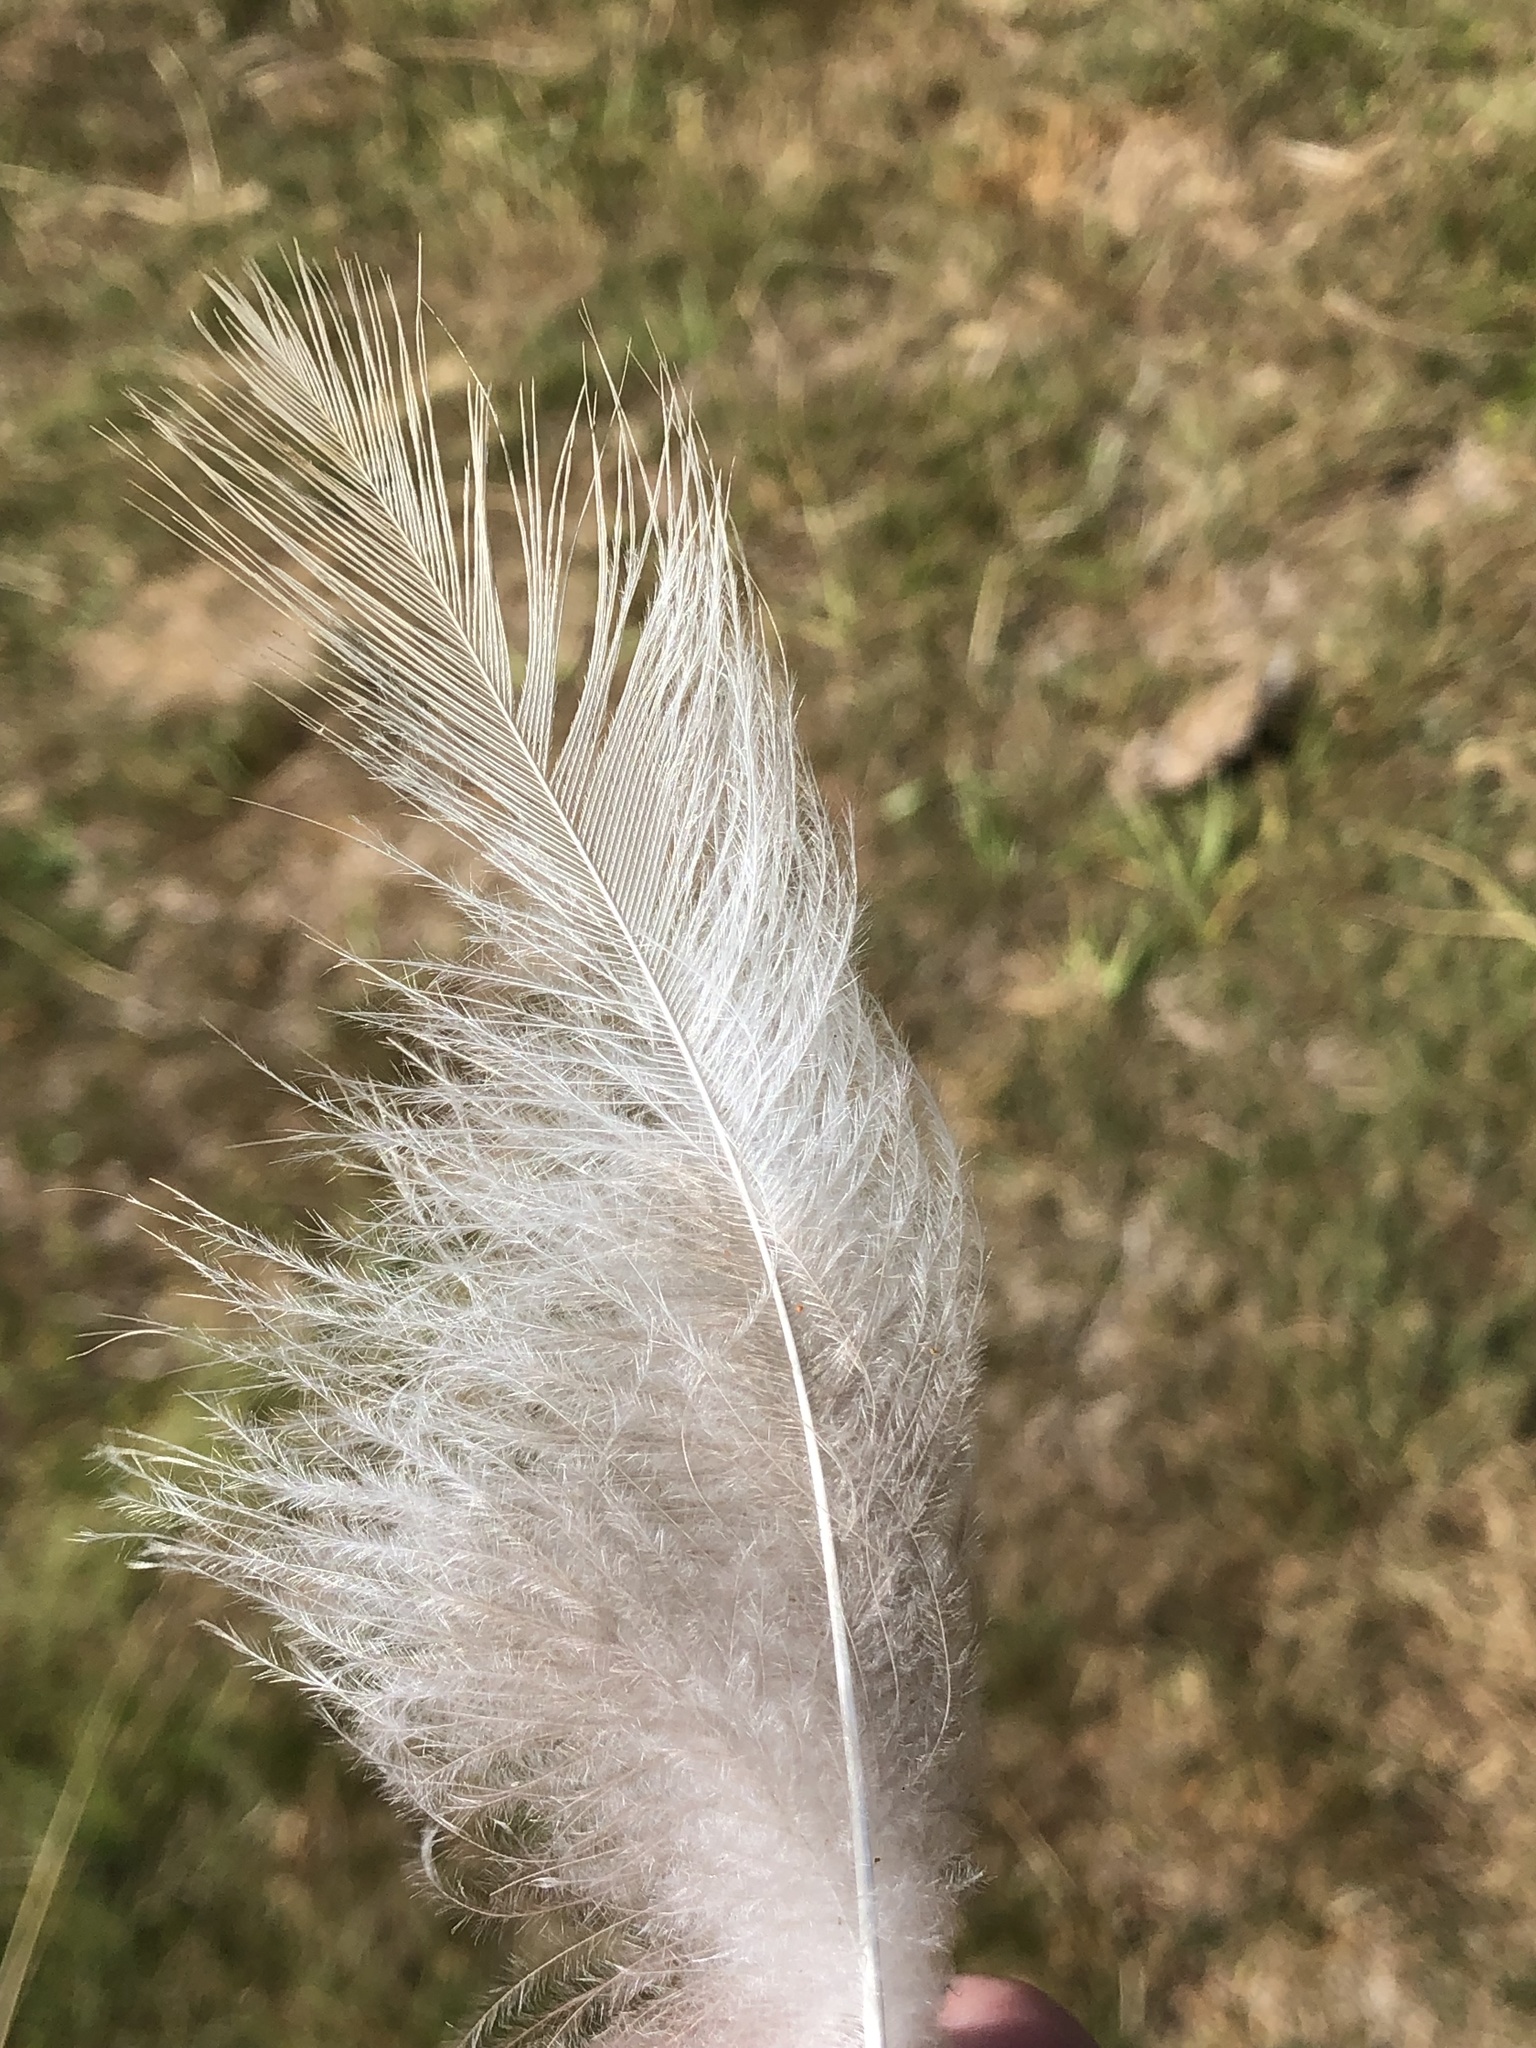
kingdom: Animalia
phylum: Chordata
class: Aves
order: Accipitriformes
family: Accipitridae
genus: Buteo
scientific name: Buteo jamaicensis
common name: Red-tailed hawk
